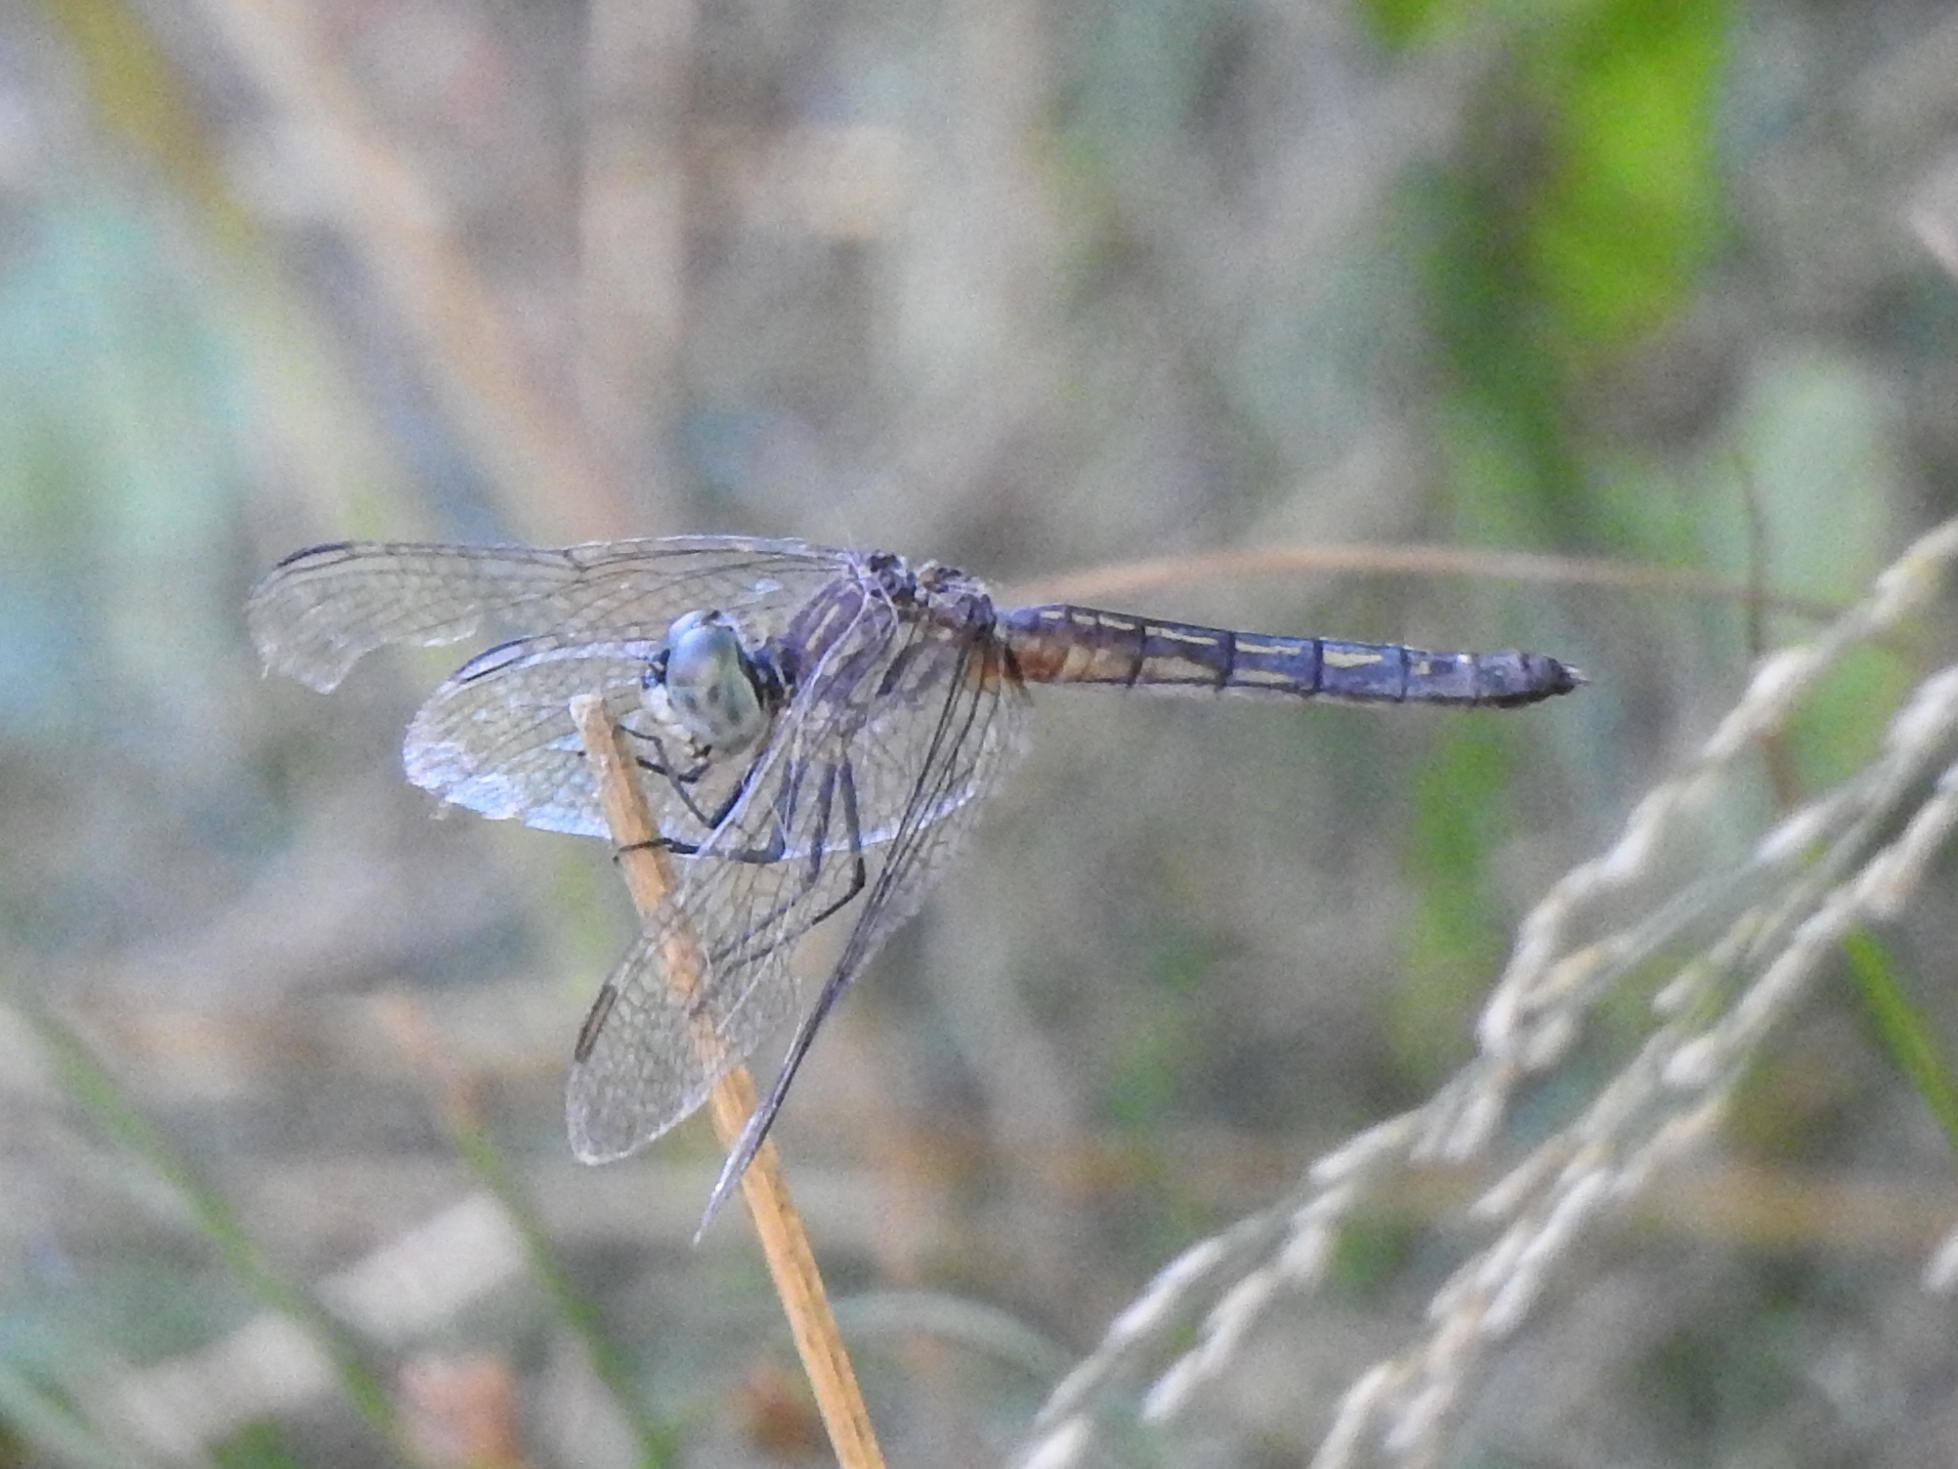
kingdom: Animalia
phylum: Arthropoda
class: Insecta
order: Odonata
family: Libellulidae
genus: Pachydiplax
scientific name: Pachydiplax longipennis
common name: Blue dasher
